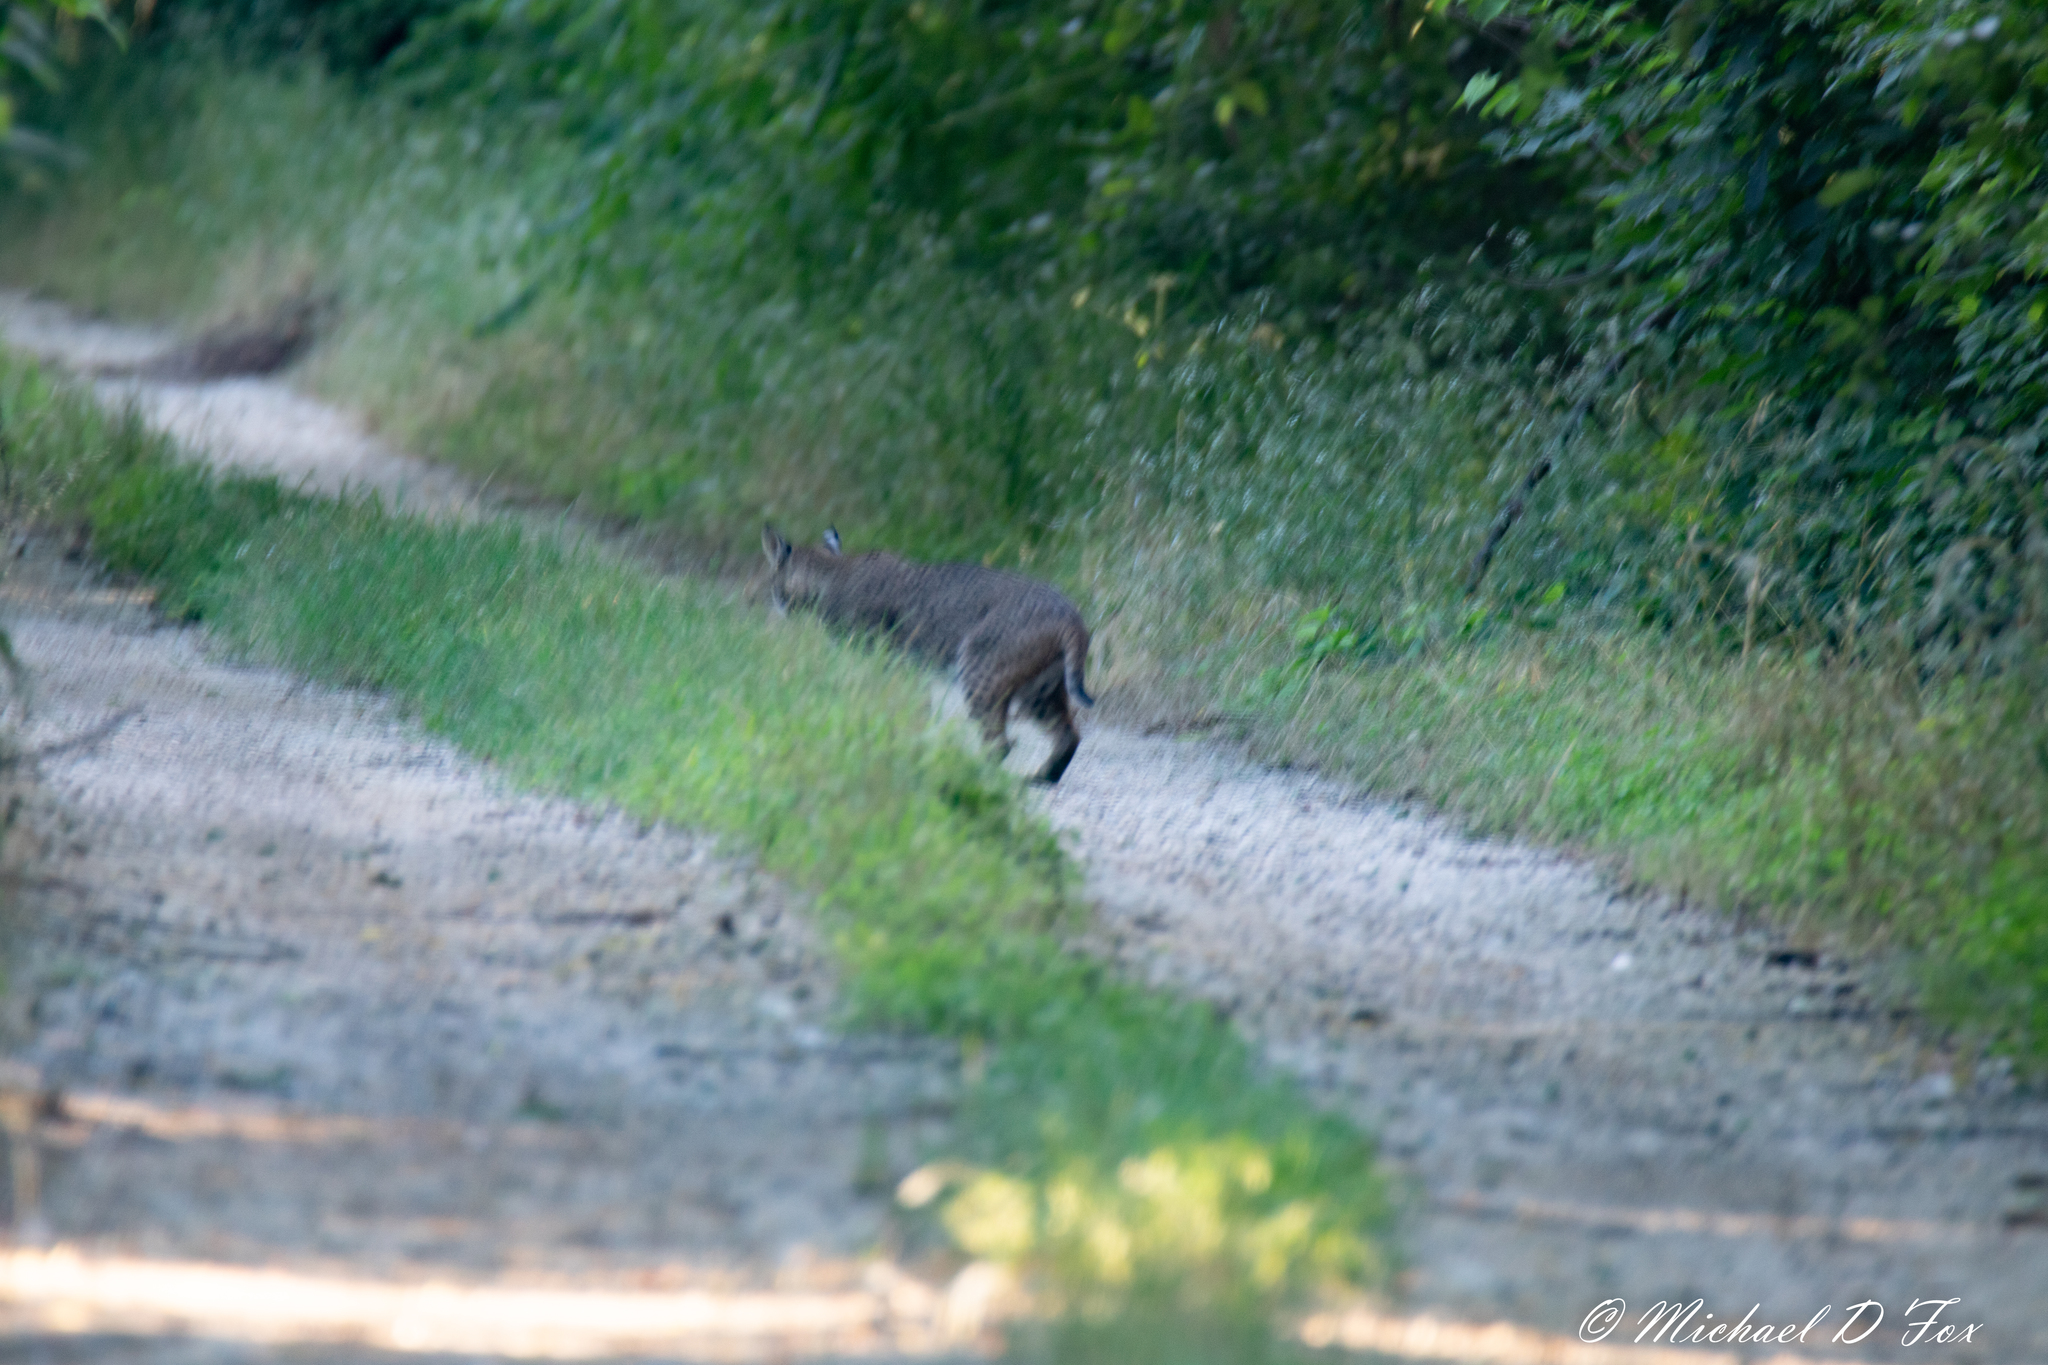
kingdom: Animalia
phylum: Chordata
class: Mammalia
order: Carnivora
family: Felidae
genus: Lynx
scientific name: Lynx rufus
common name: Bobcat
